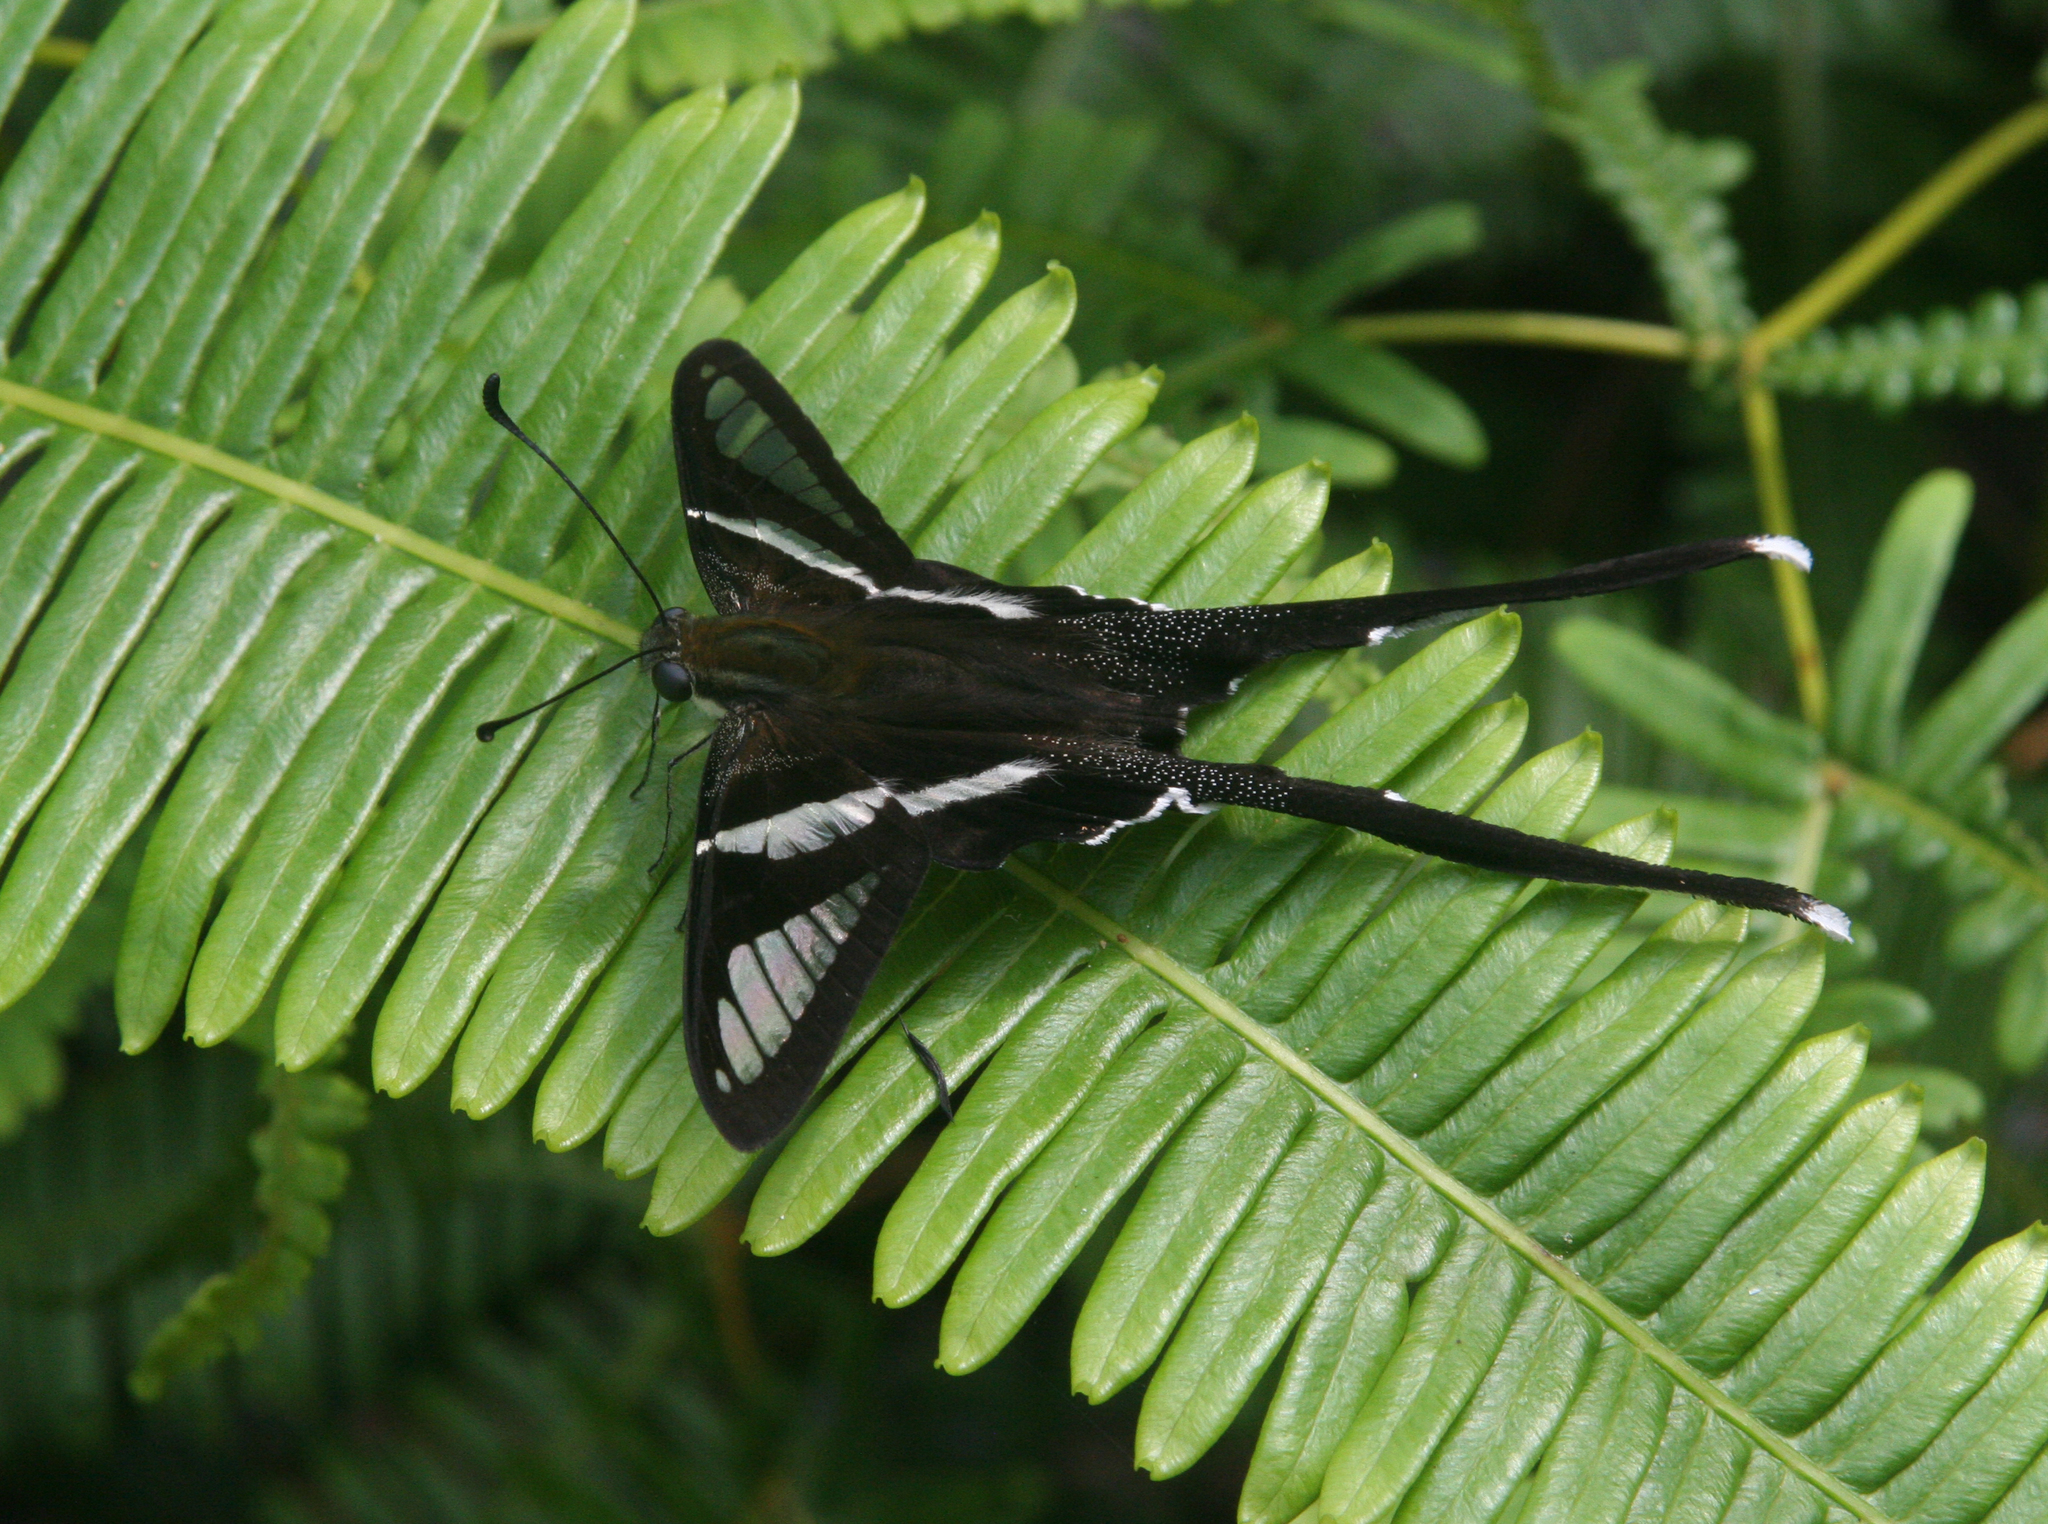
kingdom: Animalia
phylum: Arthropoda
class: Insecta
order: Lepidoptera
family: Papilionidae
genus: Lamproptera
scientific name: Lamproptera curius
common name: White dragontail
